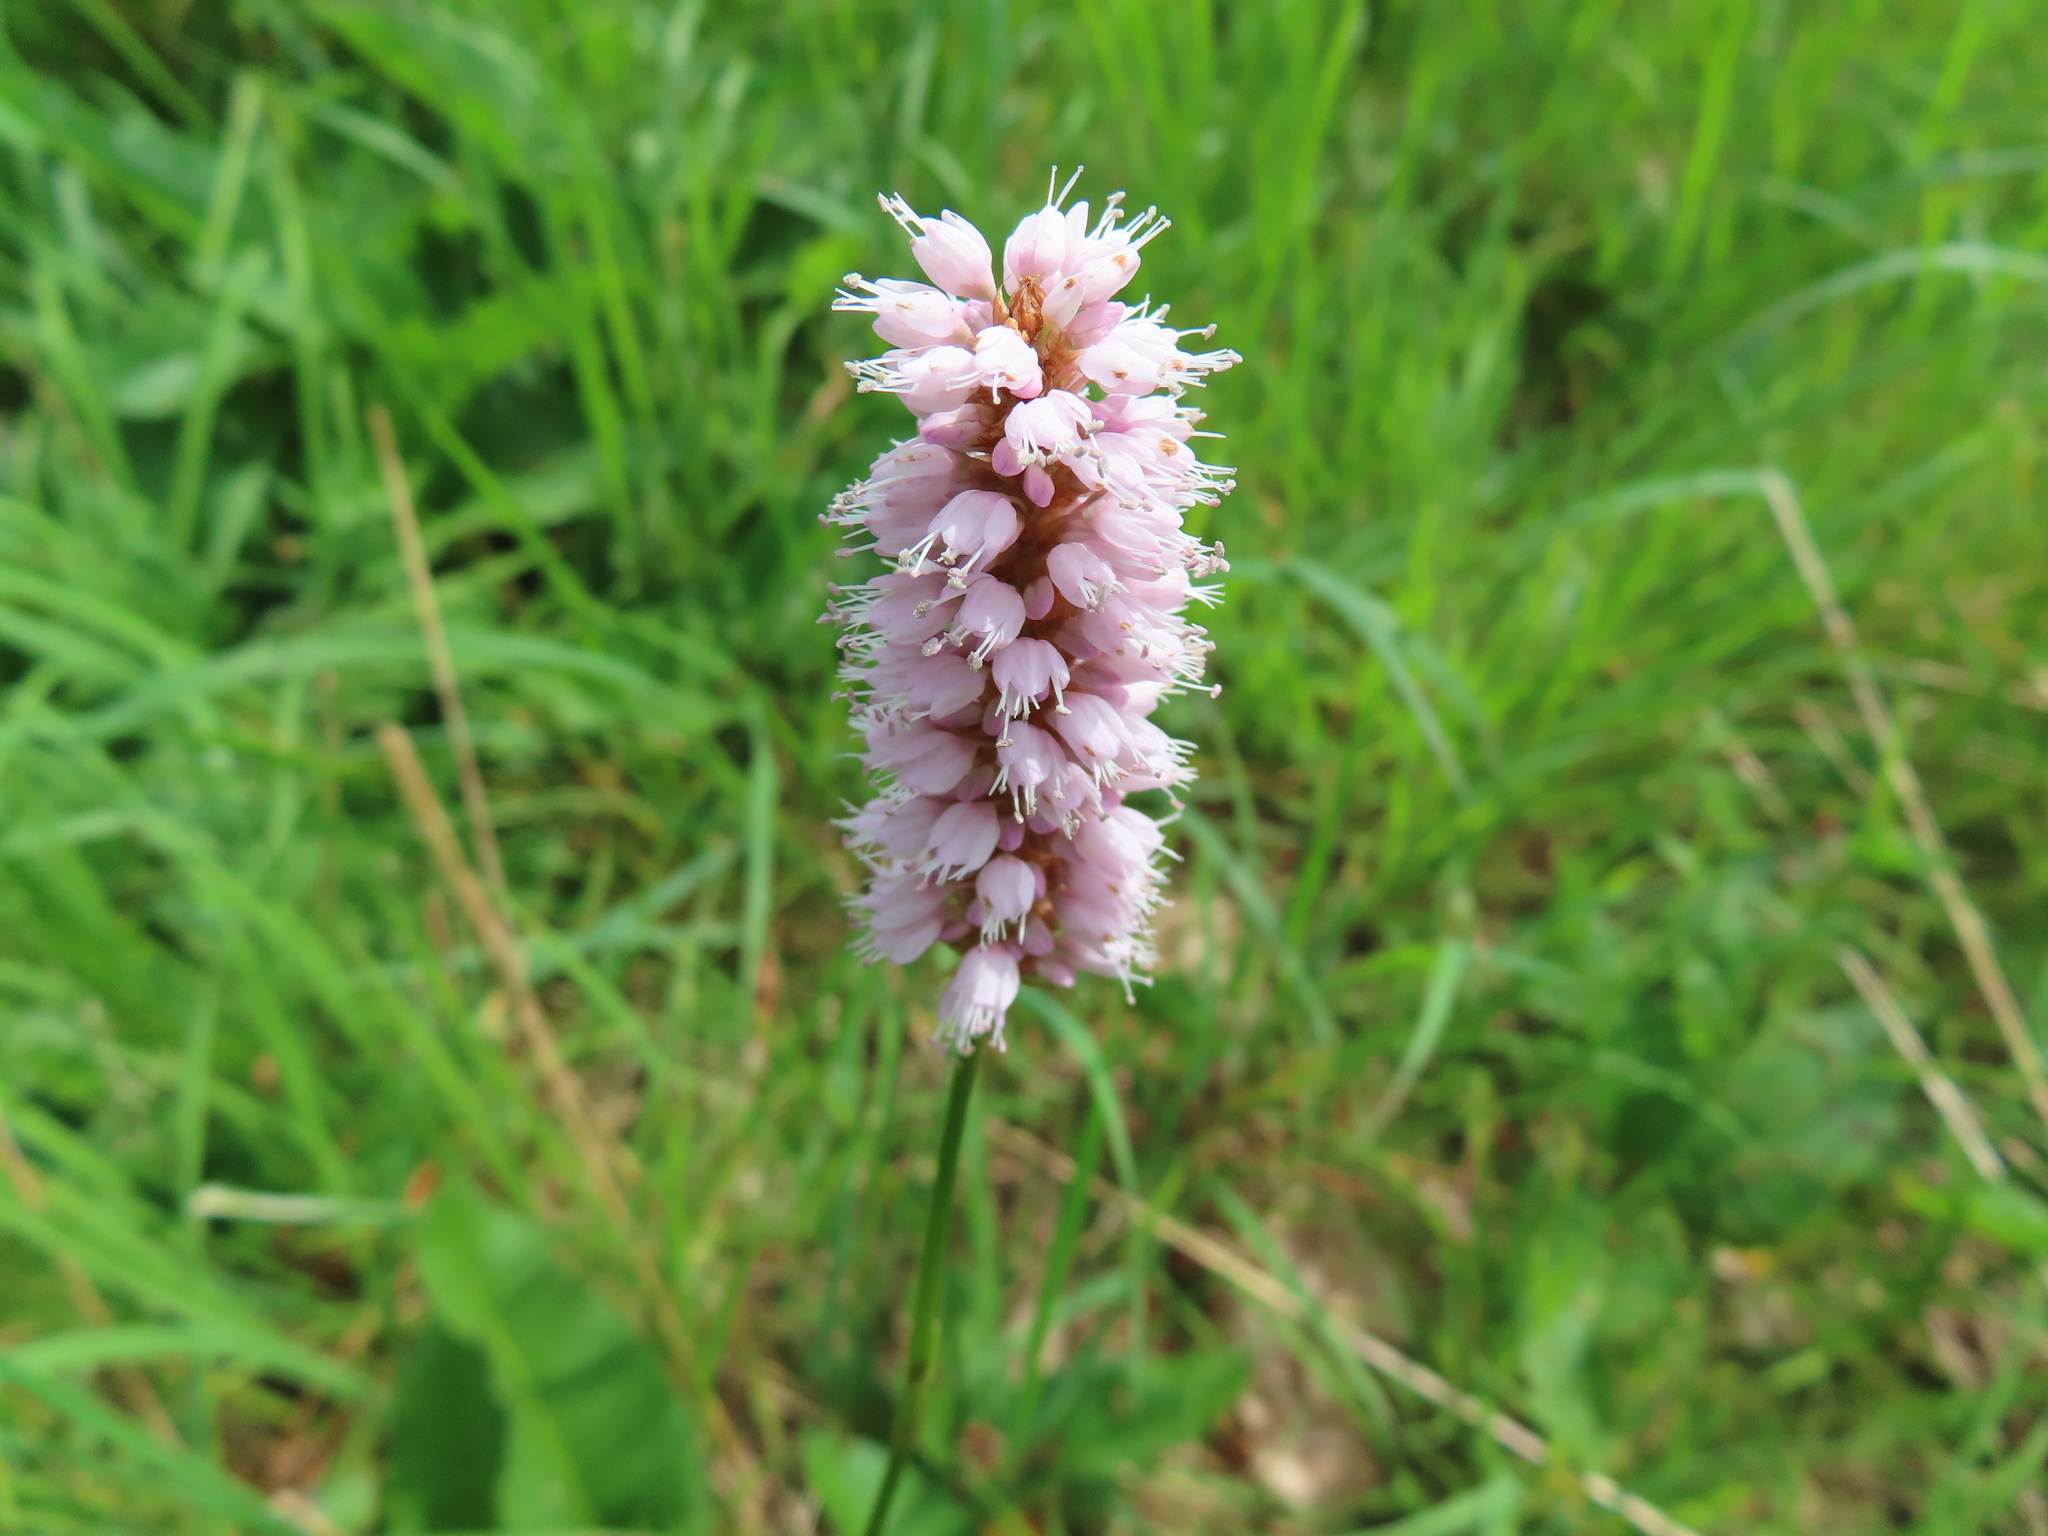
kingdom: Plantae
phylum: Tracheophyta
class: Magnoliopsida
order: Caryophyllales
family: Polygonaceae
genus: Bistorta
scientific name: Bistorta officinalis
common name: Common bistort
